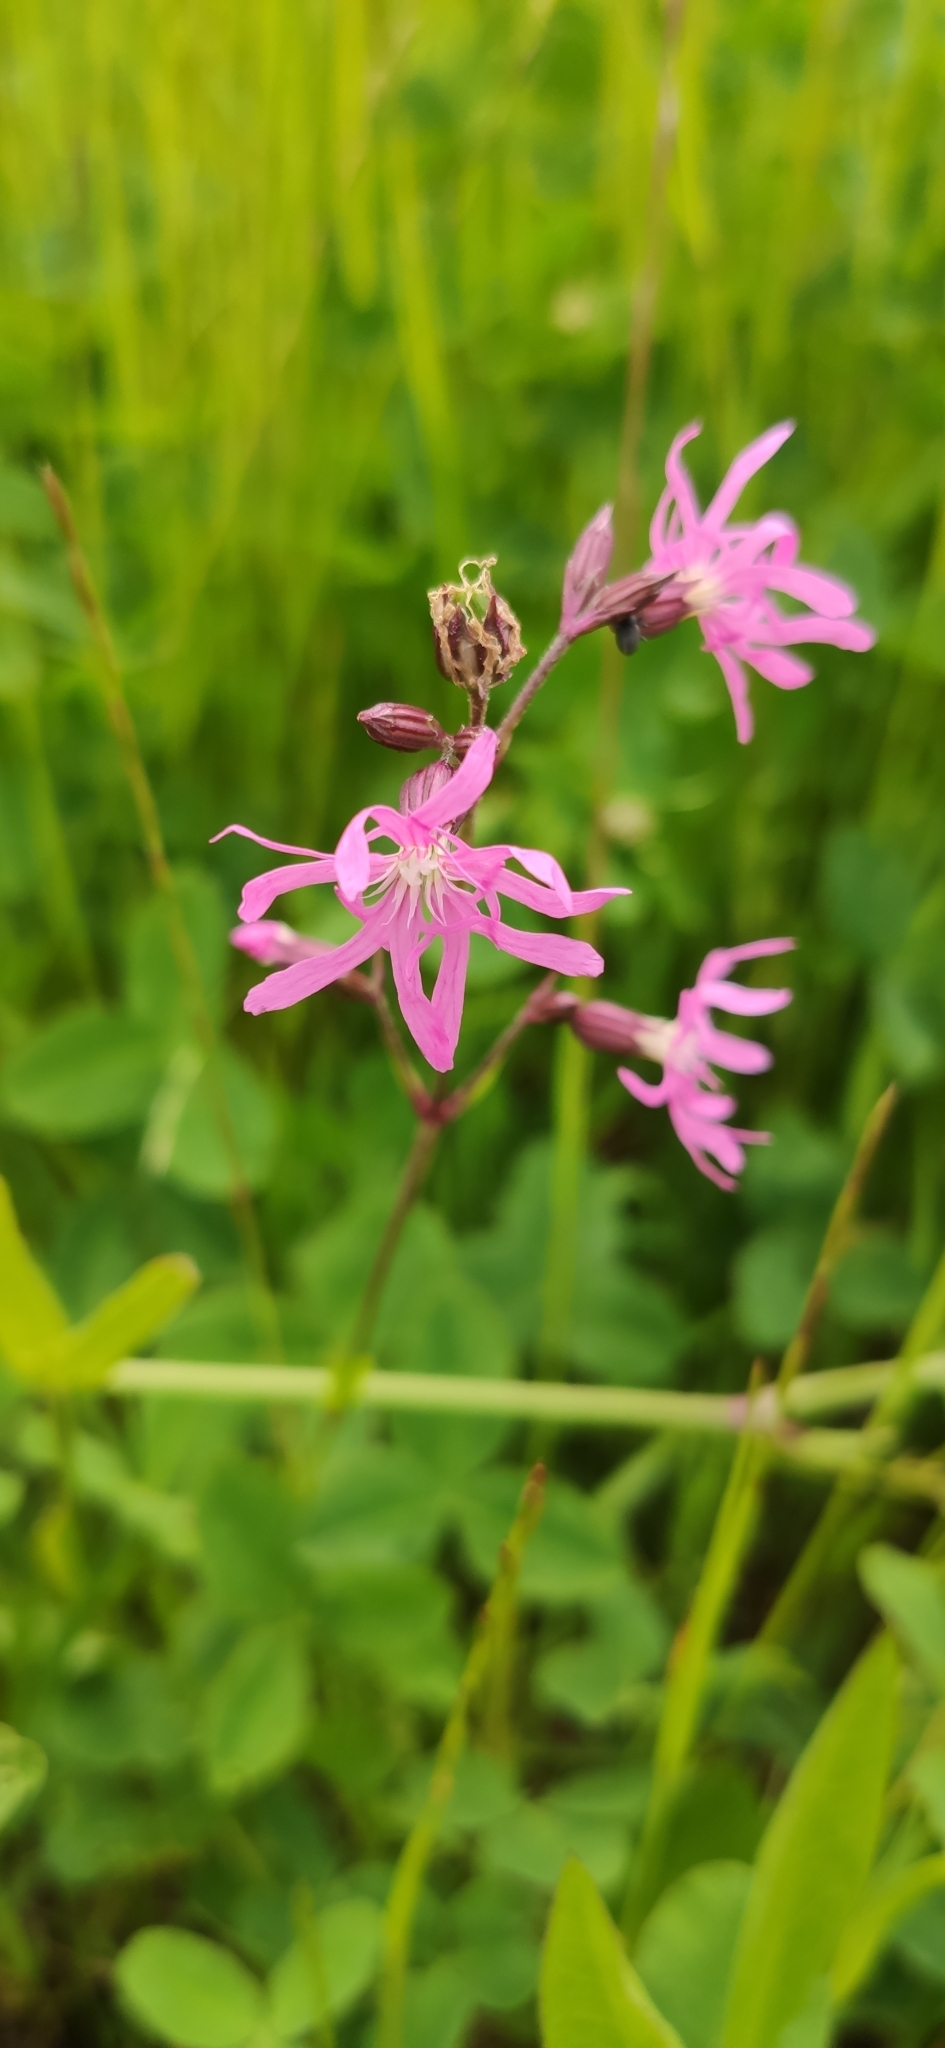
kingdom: Plantae
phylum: Tracheophyta
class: Magnoliopsida
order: Caryophyllales
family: Caryophyllaceae
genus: Silene
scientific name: Silene flos-cuculi
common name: Ragged-robin
